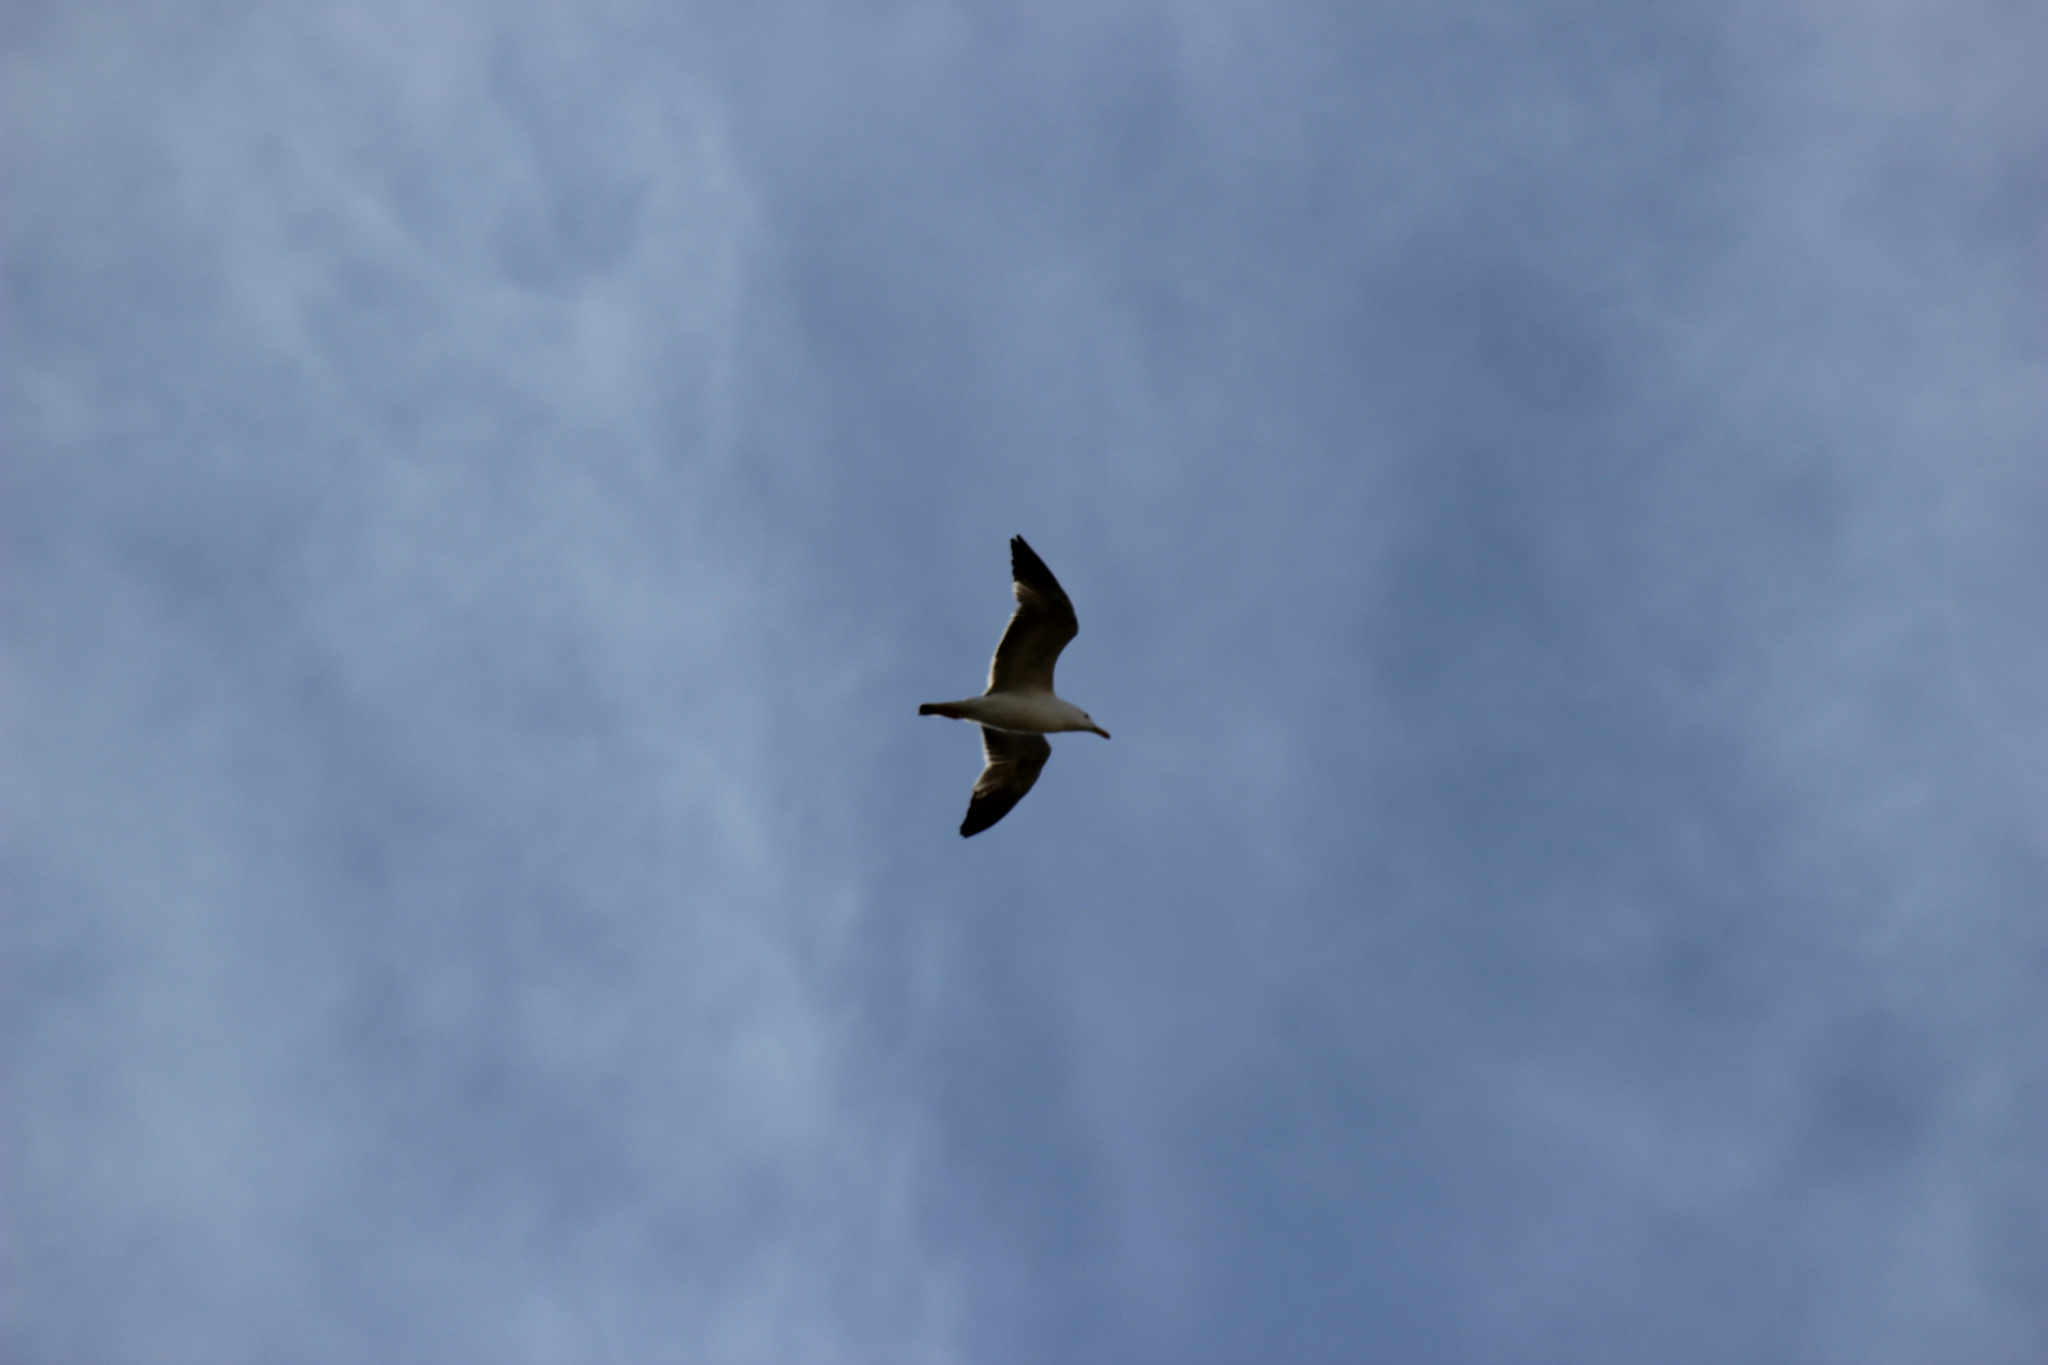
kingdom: Animalia
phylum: Chordata
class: Aves
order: Charadriiformes
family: Laridae
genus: Larus
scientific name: Larus michahellis
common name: Yellow-legged gull
